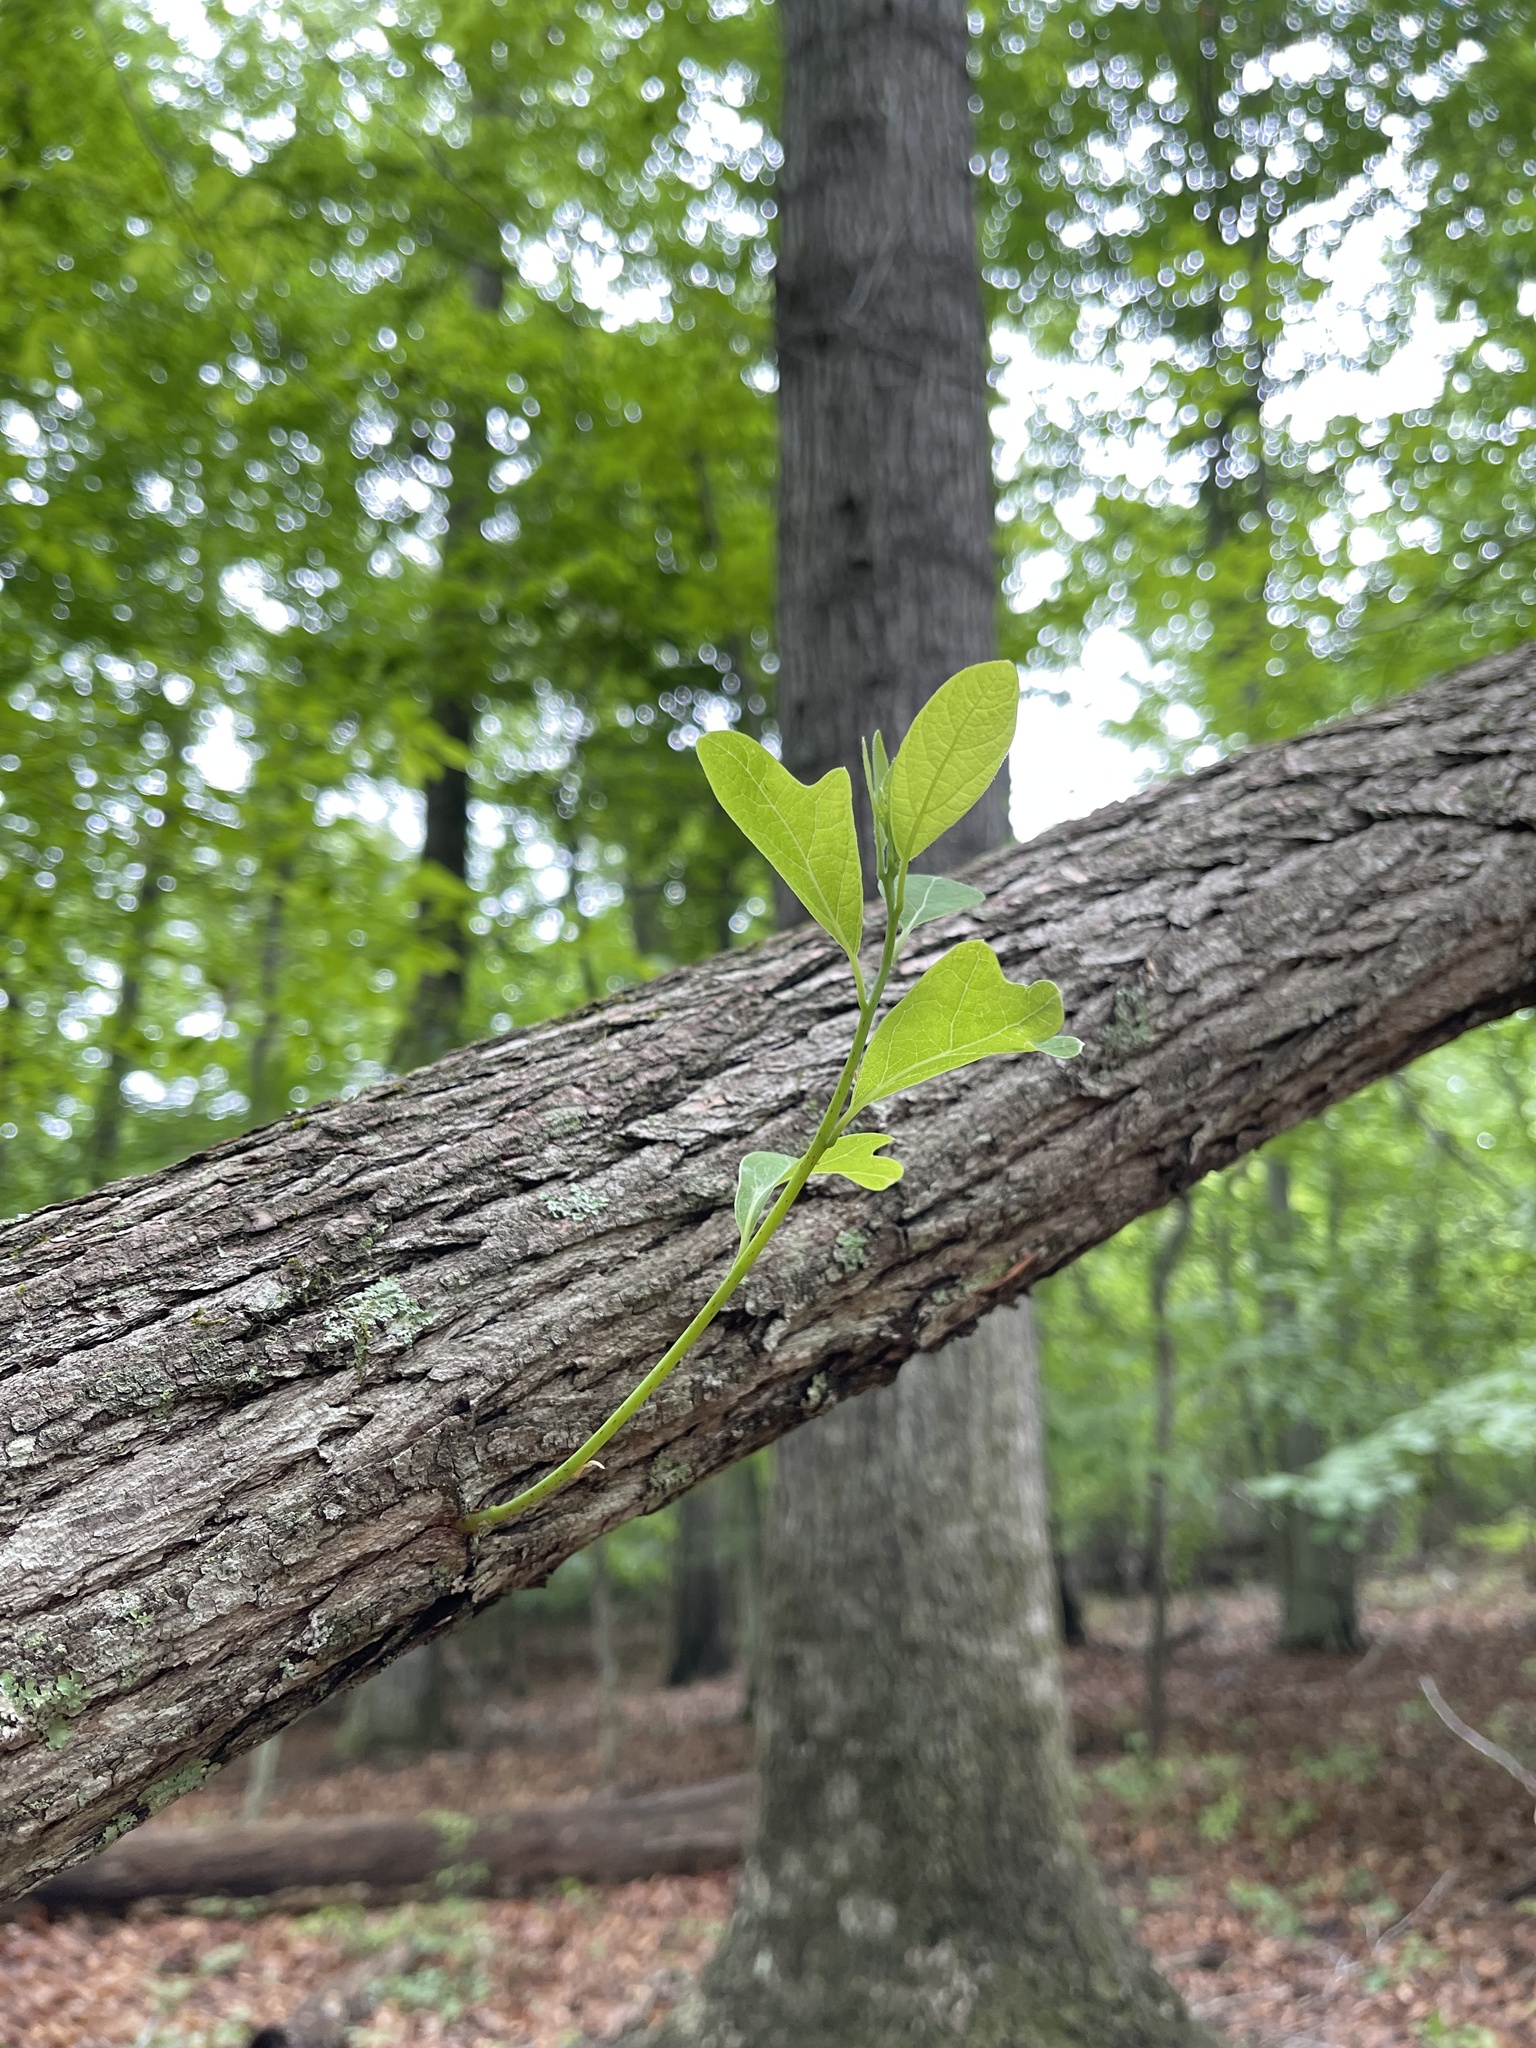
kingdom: Plantae
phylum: Tracheophyta
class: Magnoliopsida
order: Laurales
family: Lauraceae
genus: Sassafras
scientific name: Sassafras albidum
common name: Sassafras
